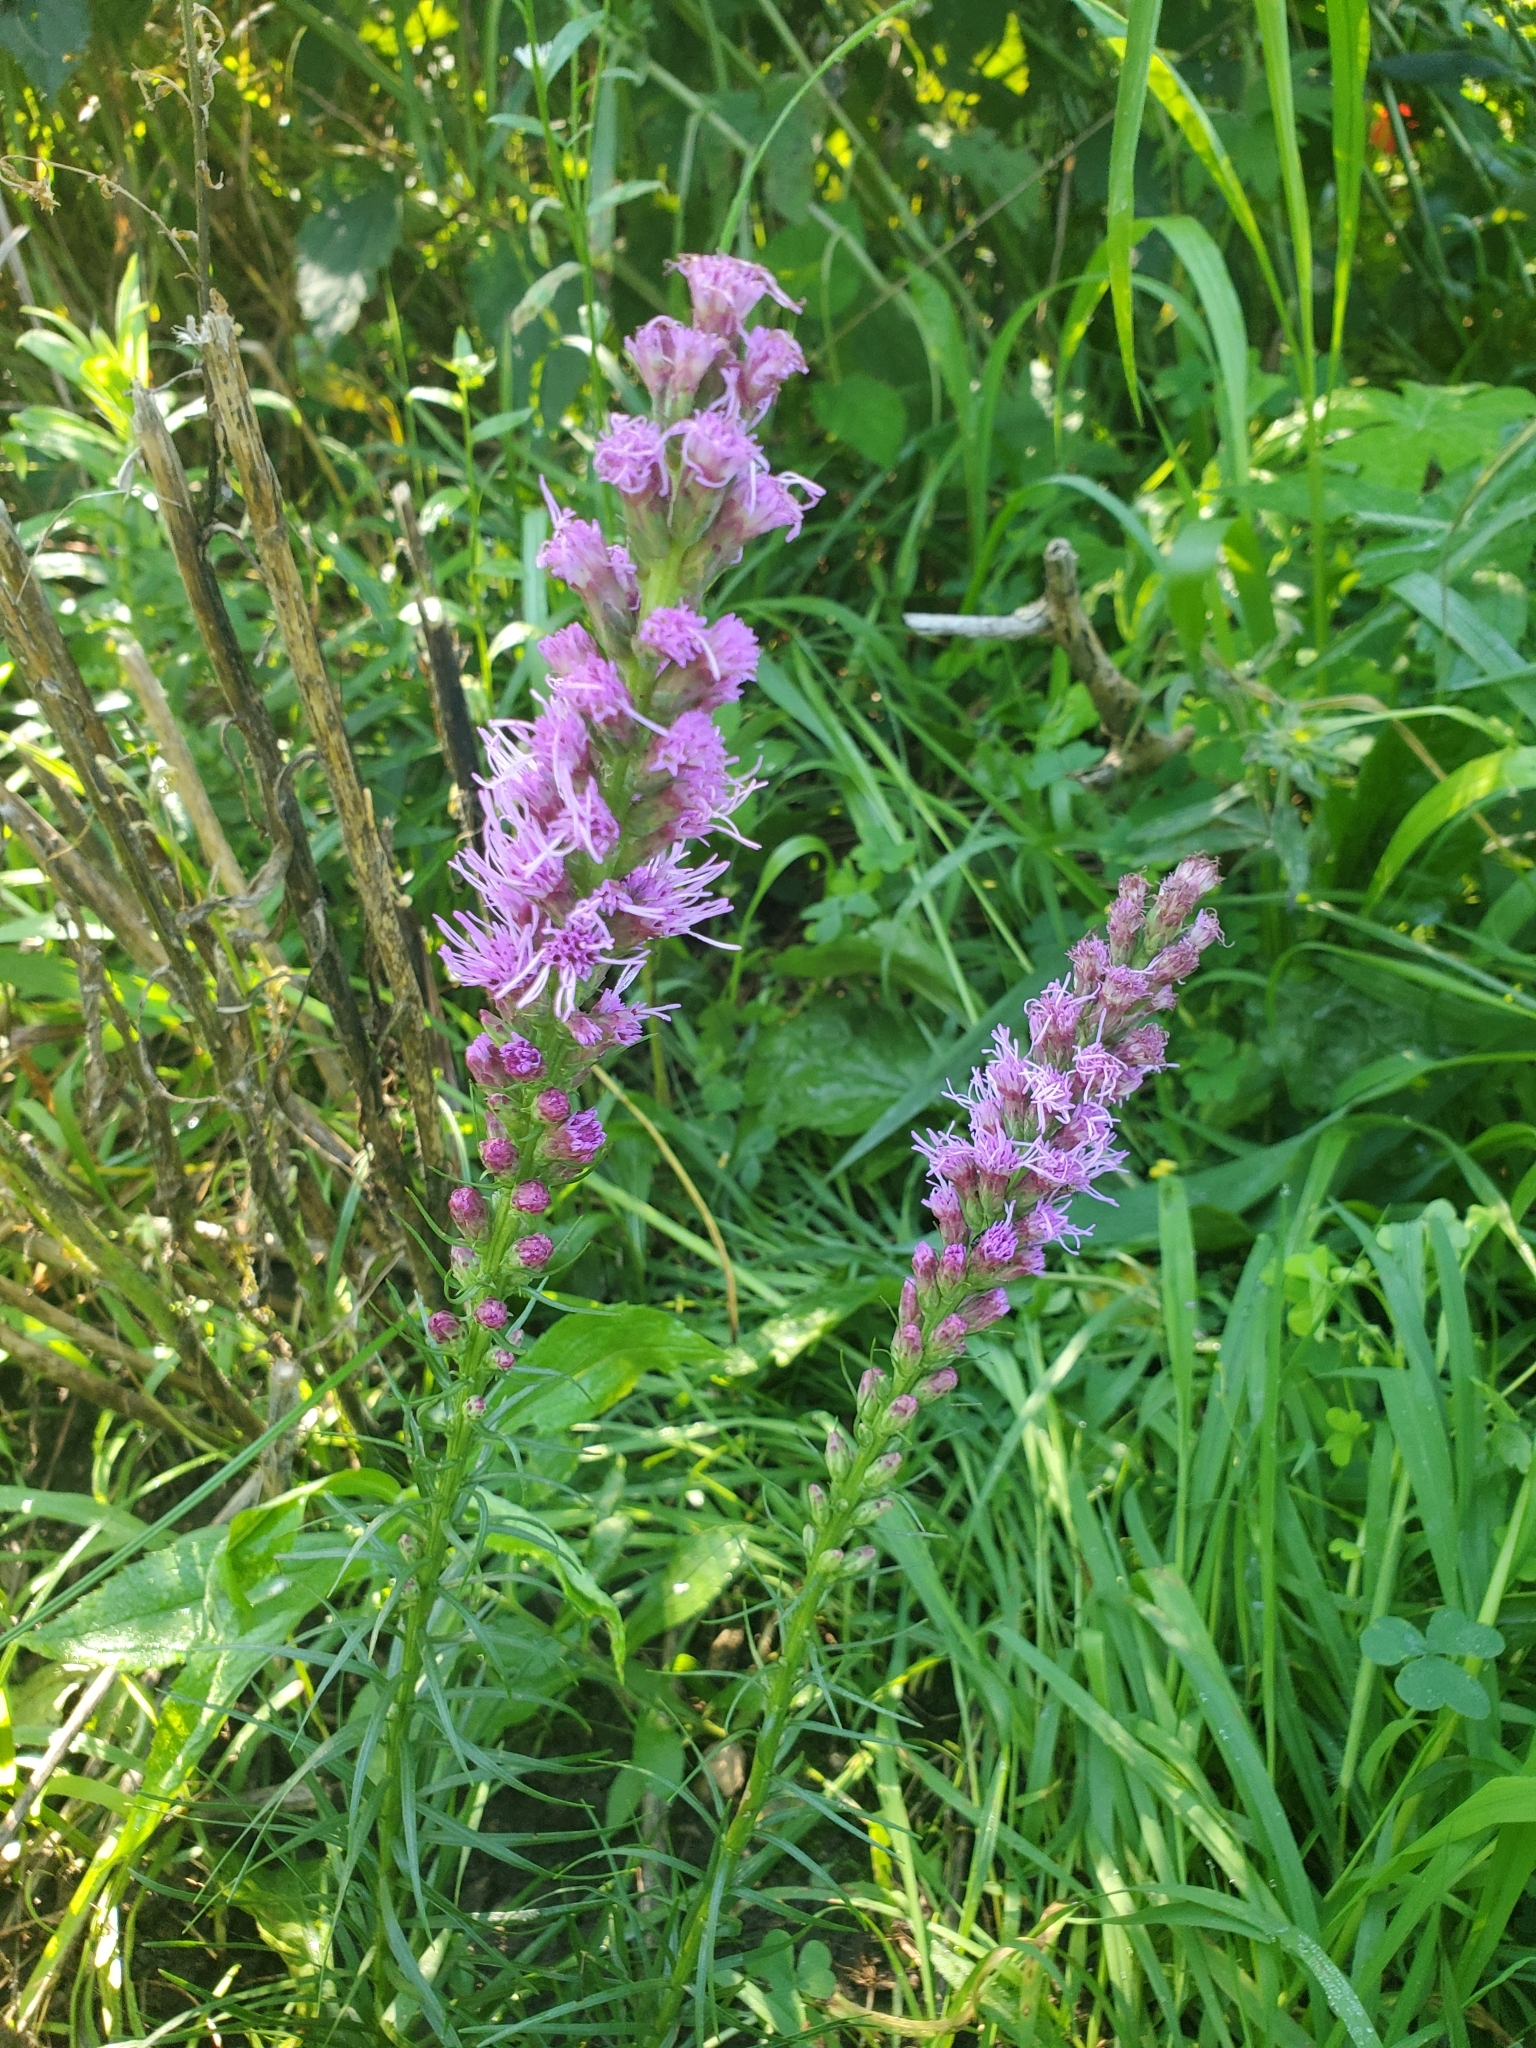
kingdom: Plantae
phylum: Tracheophyta
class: Magnoliopsida
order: Asterales
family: Asteraceae
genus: Liatris
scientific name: Liatris spicata
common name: Florist gayfeather
